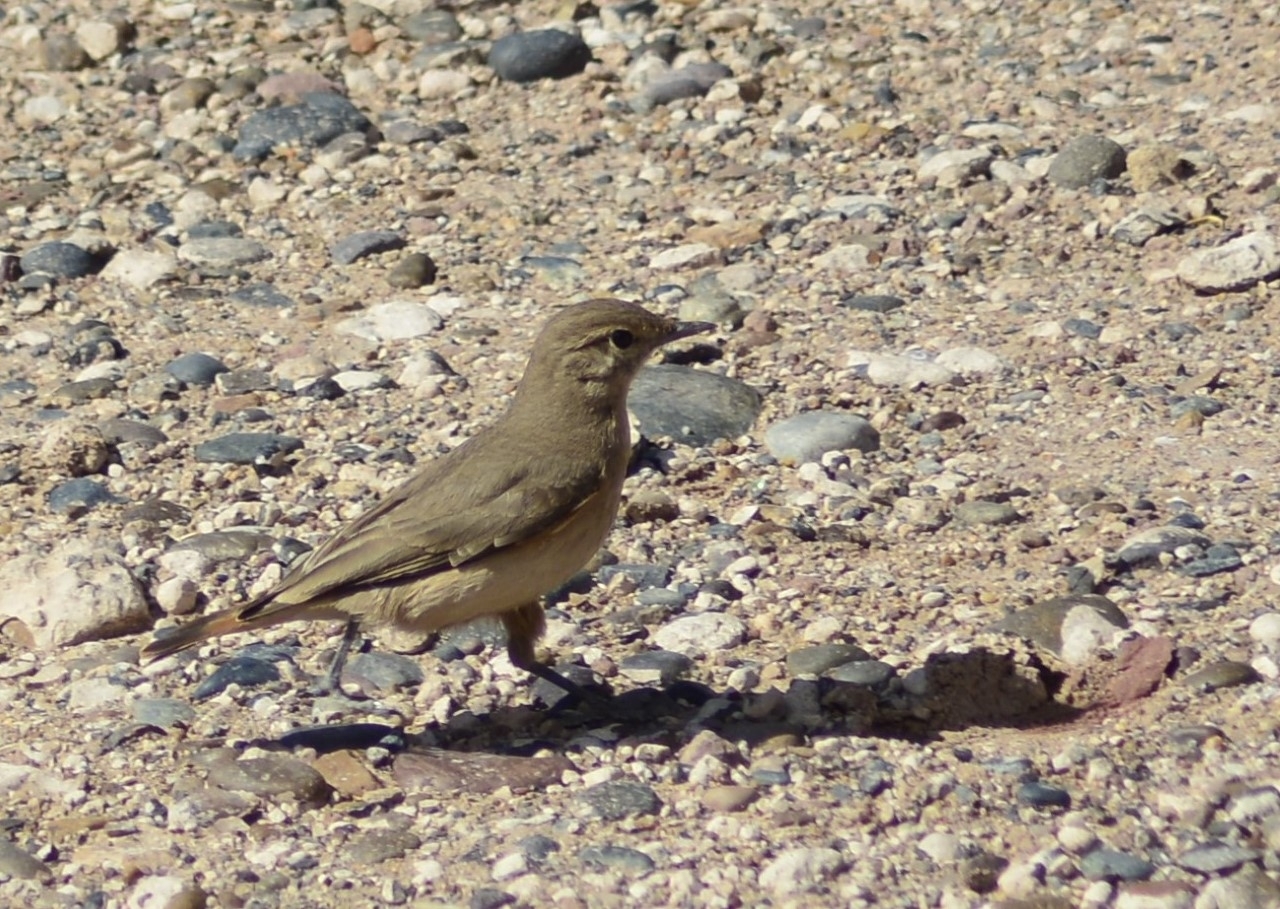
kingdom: Animalia
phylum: Chordata
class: Aves
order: Passeriformes
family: Furnariidae
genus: Geositta
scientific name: Geositta rufipennis
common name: Rufous-banded miner
